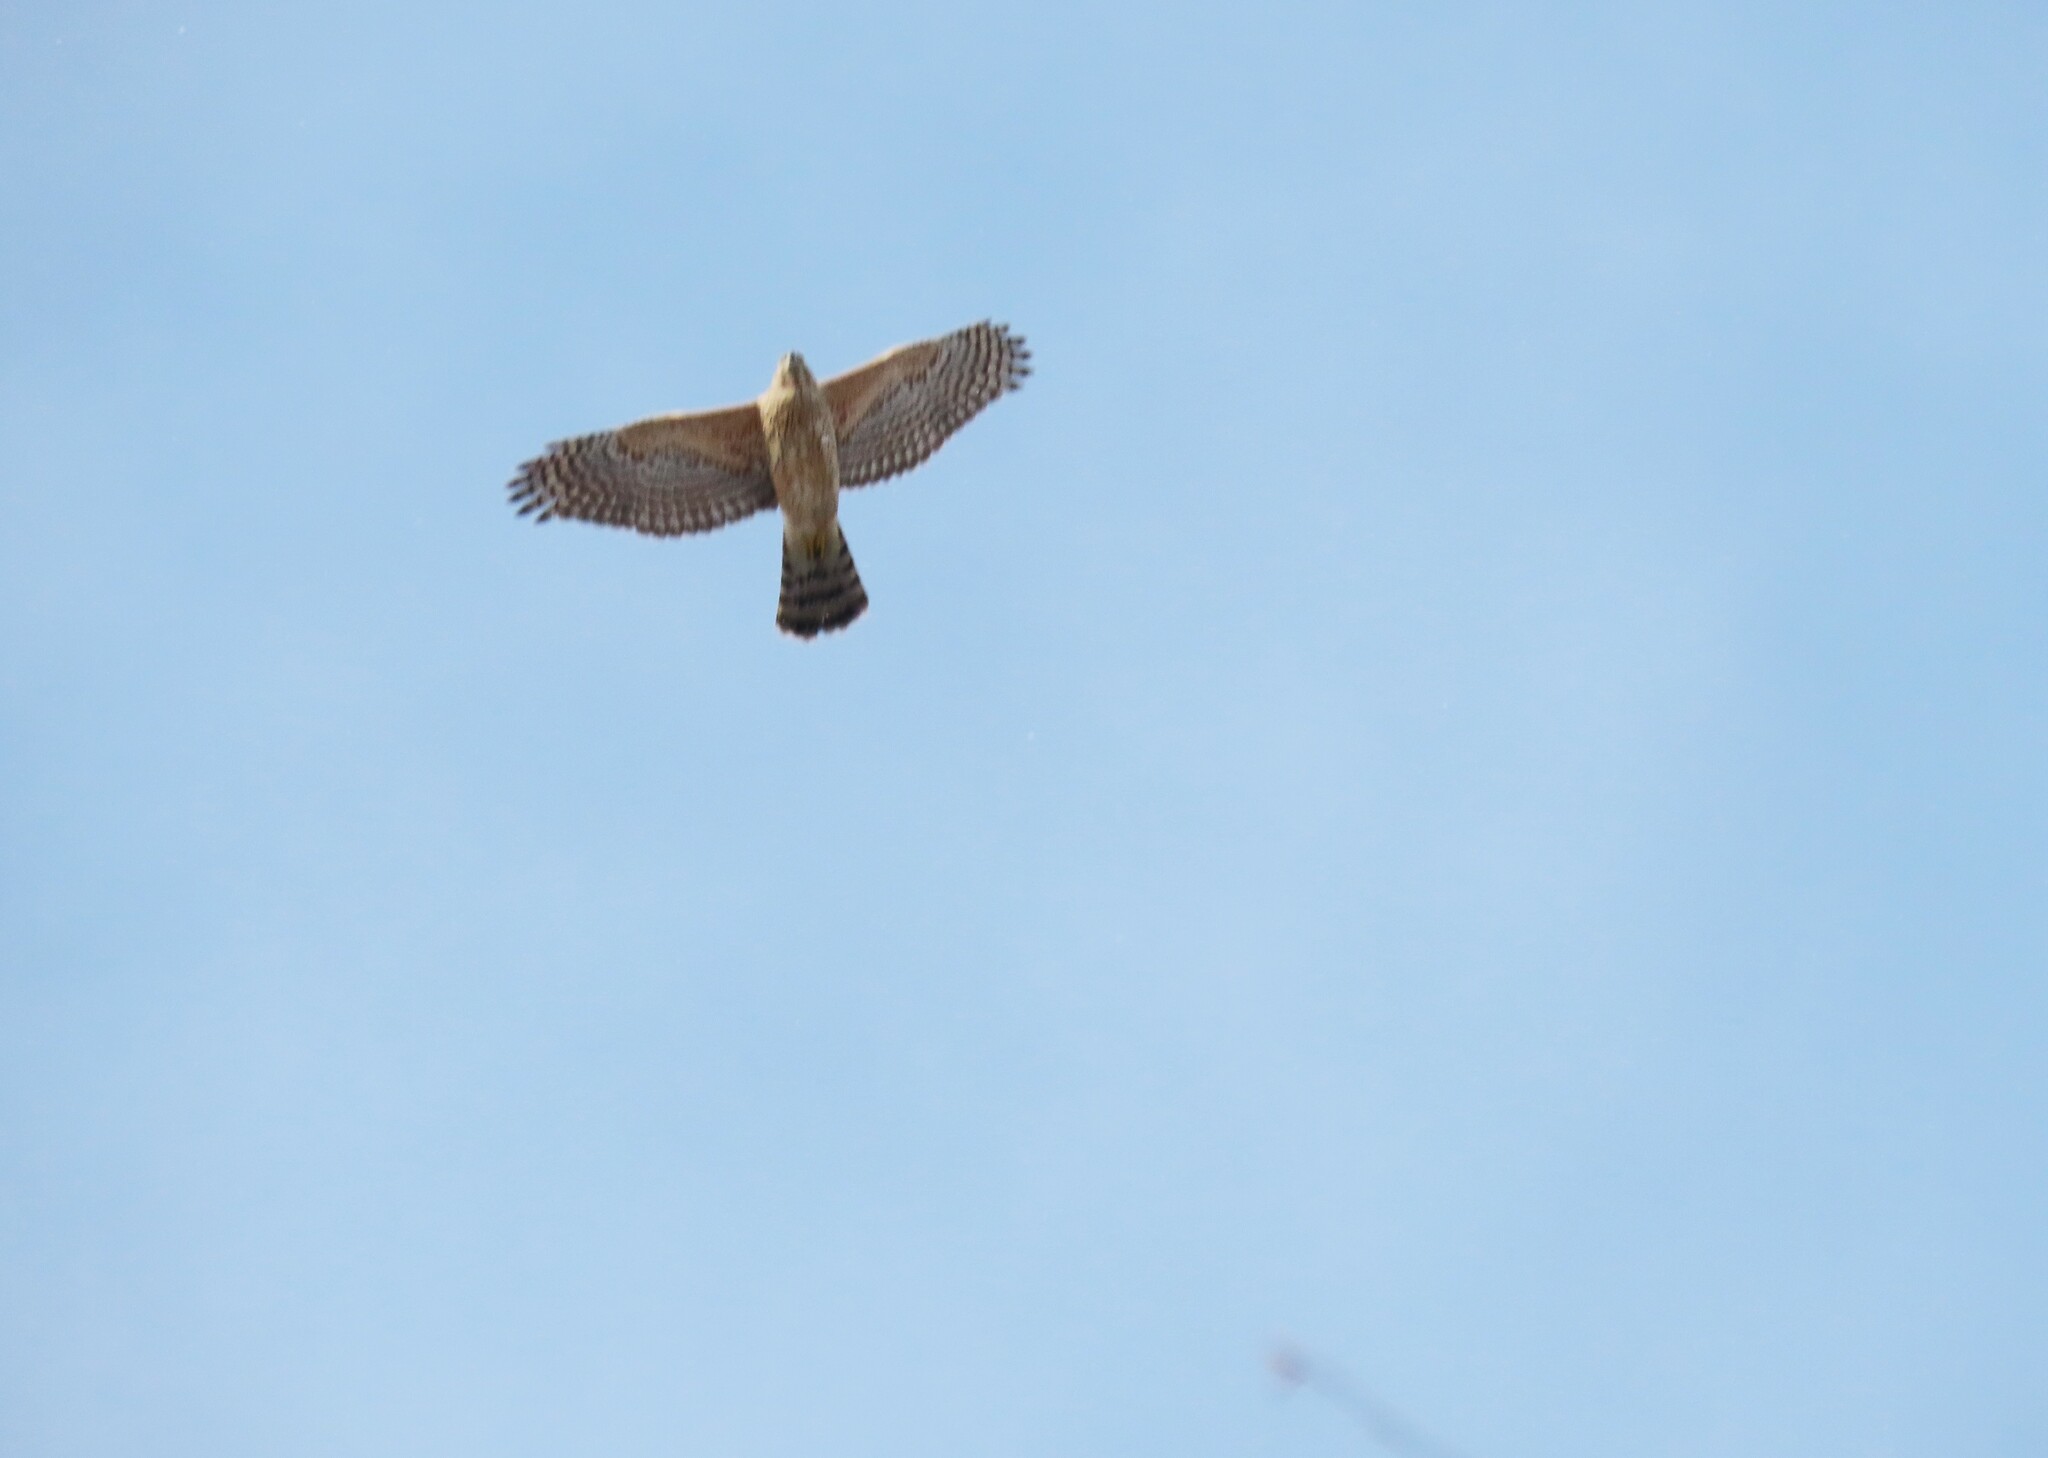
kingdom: Animalia
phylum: Chordata
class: Aves
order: Accipitriformes
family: Accipitridae
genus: Accipiter
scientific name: Accipiter gentilis
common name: Northern goshawk
